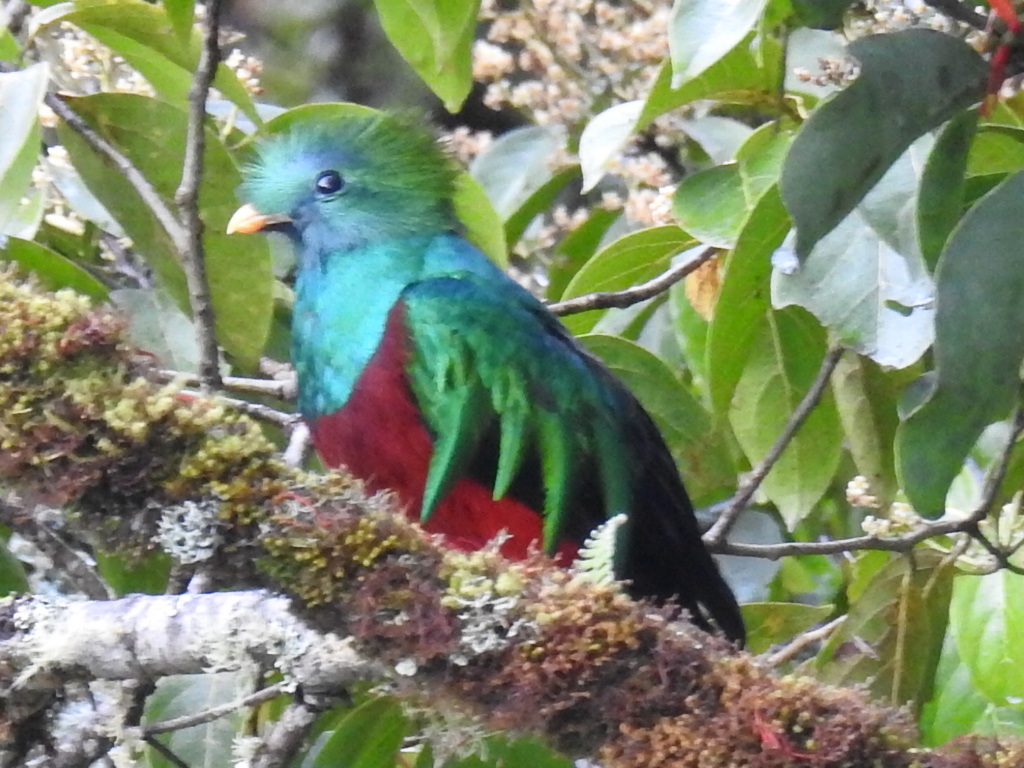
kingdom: Animalia
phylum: Chordata
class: Aves
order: Trogoniformes
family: Trogonidae
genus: Pharomachrus
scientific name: Pharomachrus mocinno
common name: Resplendent quetzal
